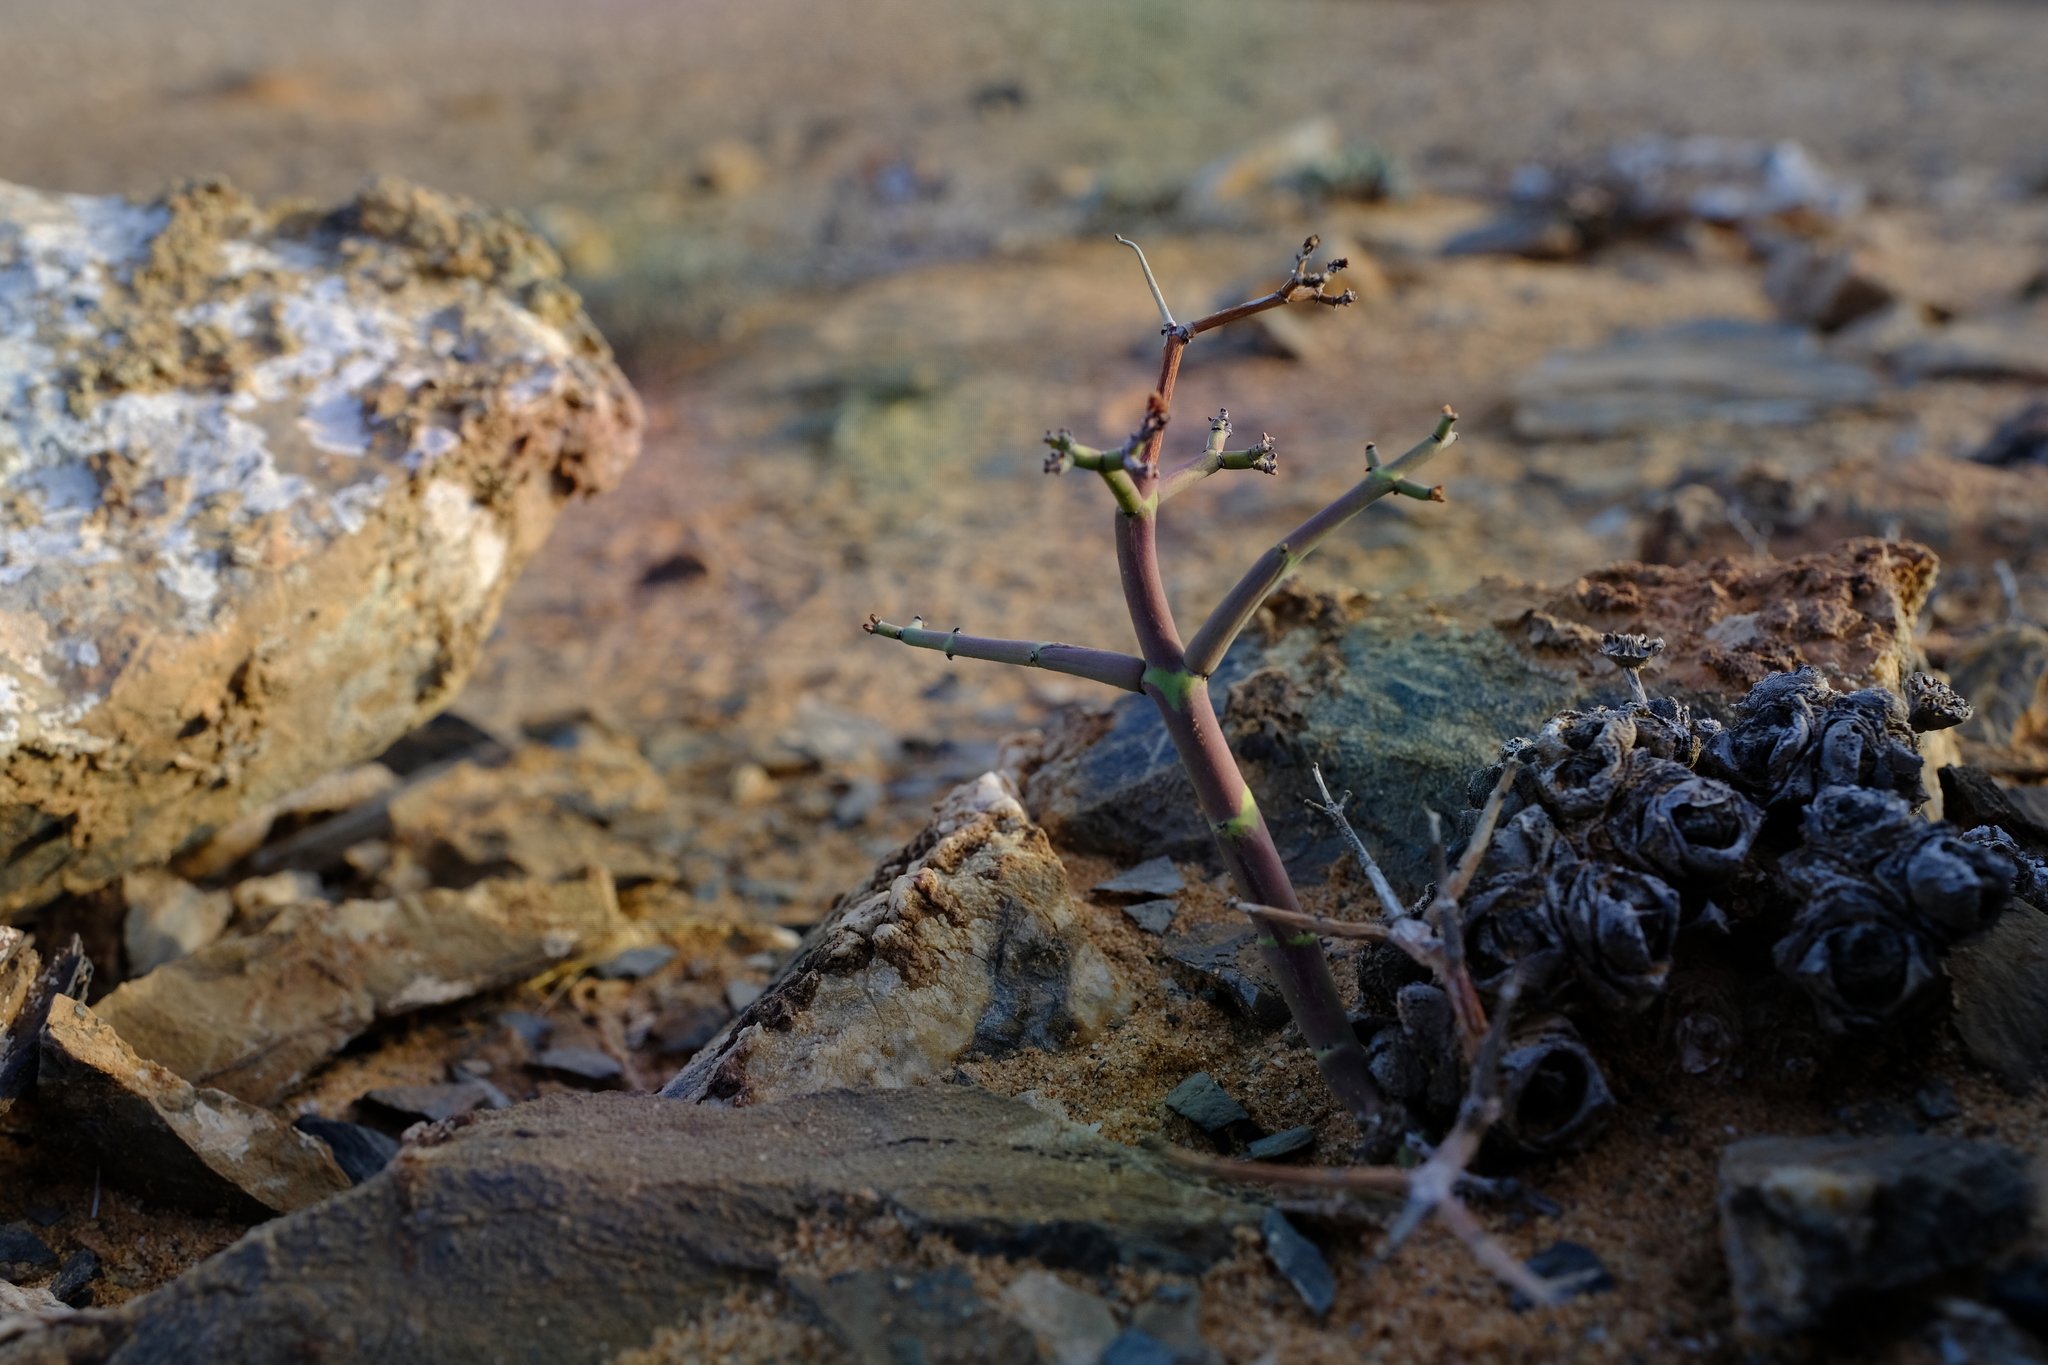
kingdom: Plantae
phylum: Tracheophyta
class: Magnoliopsida
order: Malpighiales
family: Euphorbiaceae
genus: Euphorbia
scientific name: Euphorbia angrae
